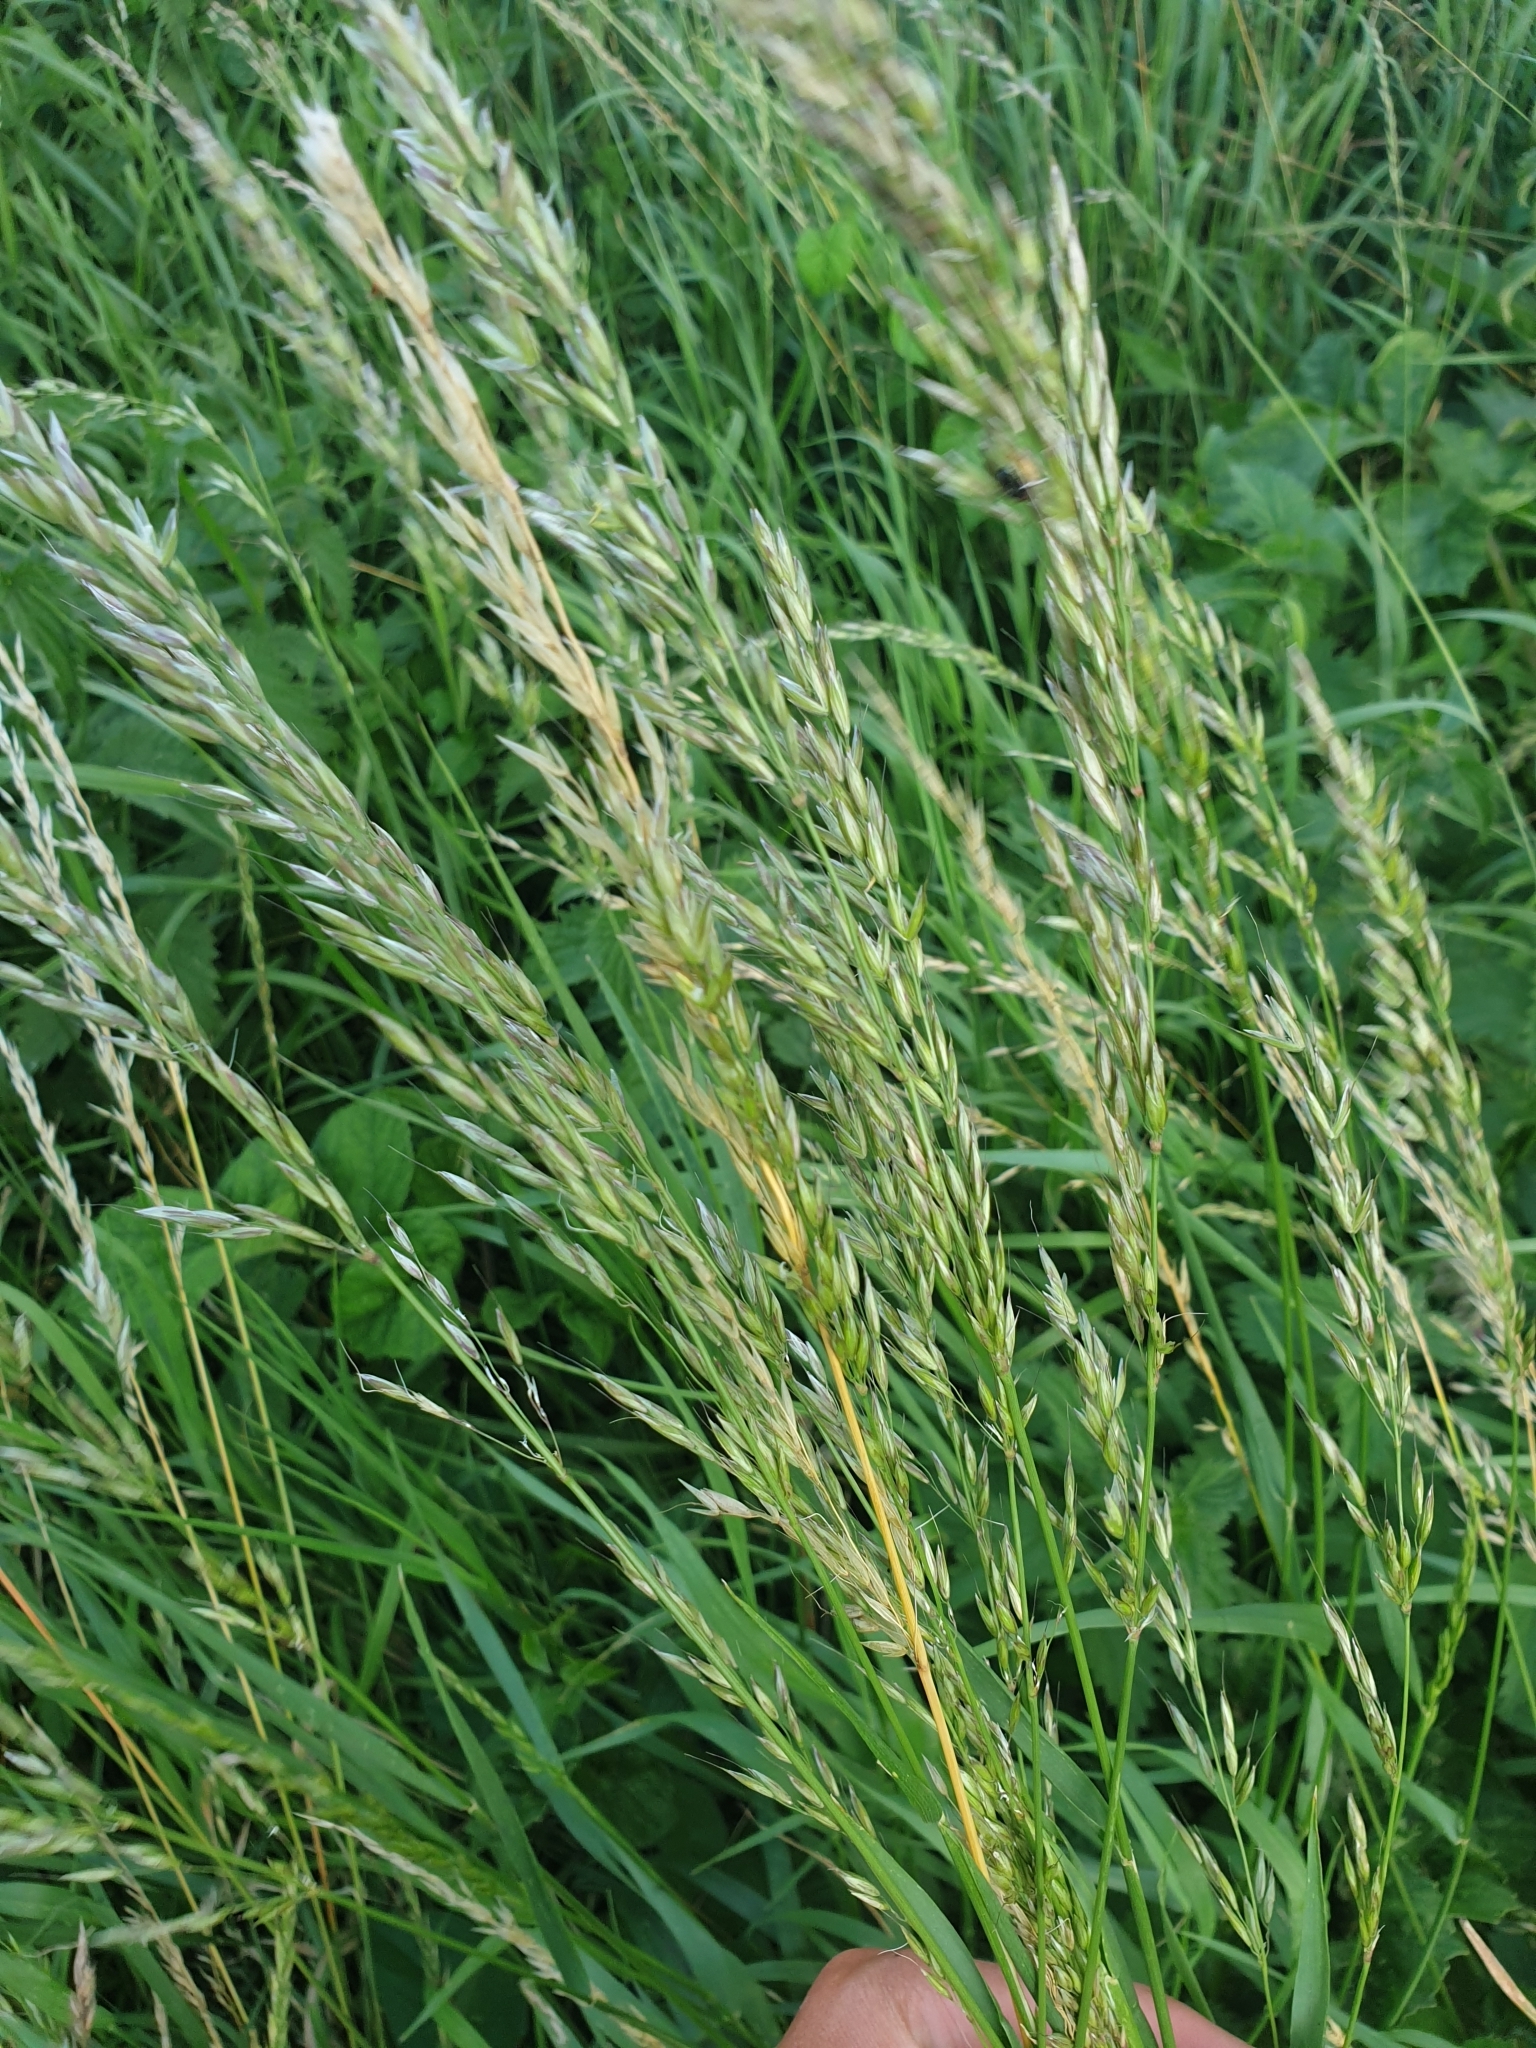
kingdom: Plantae
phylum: Tracheophyta
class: Liliopsida
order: Poales
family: Poaceae
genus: Arrhenatherum
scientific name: Arrhenatherum elatius
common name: Tall oatgrass
